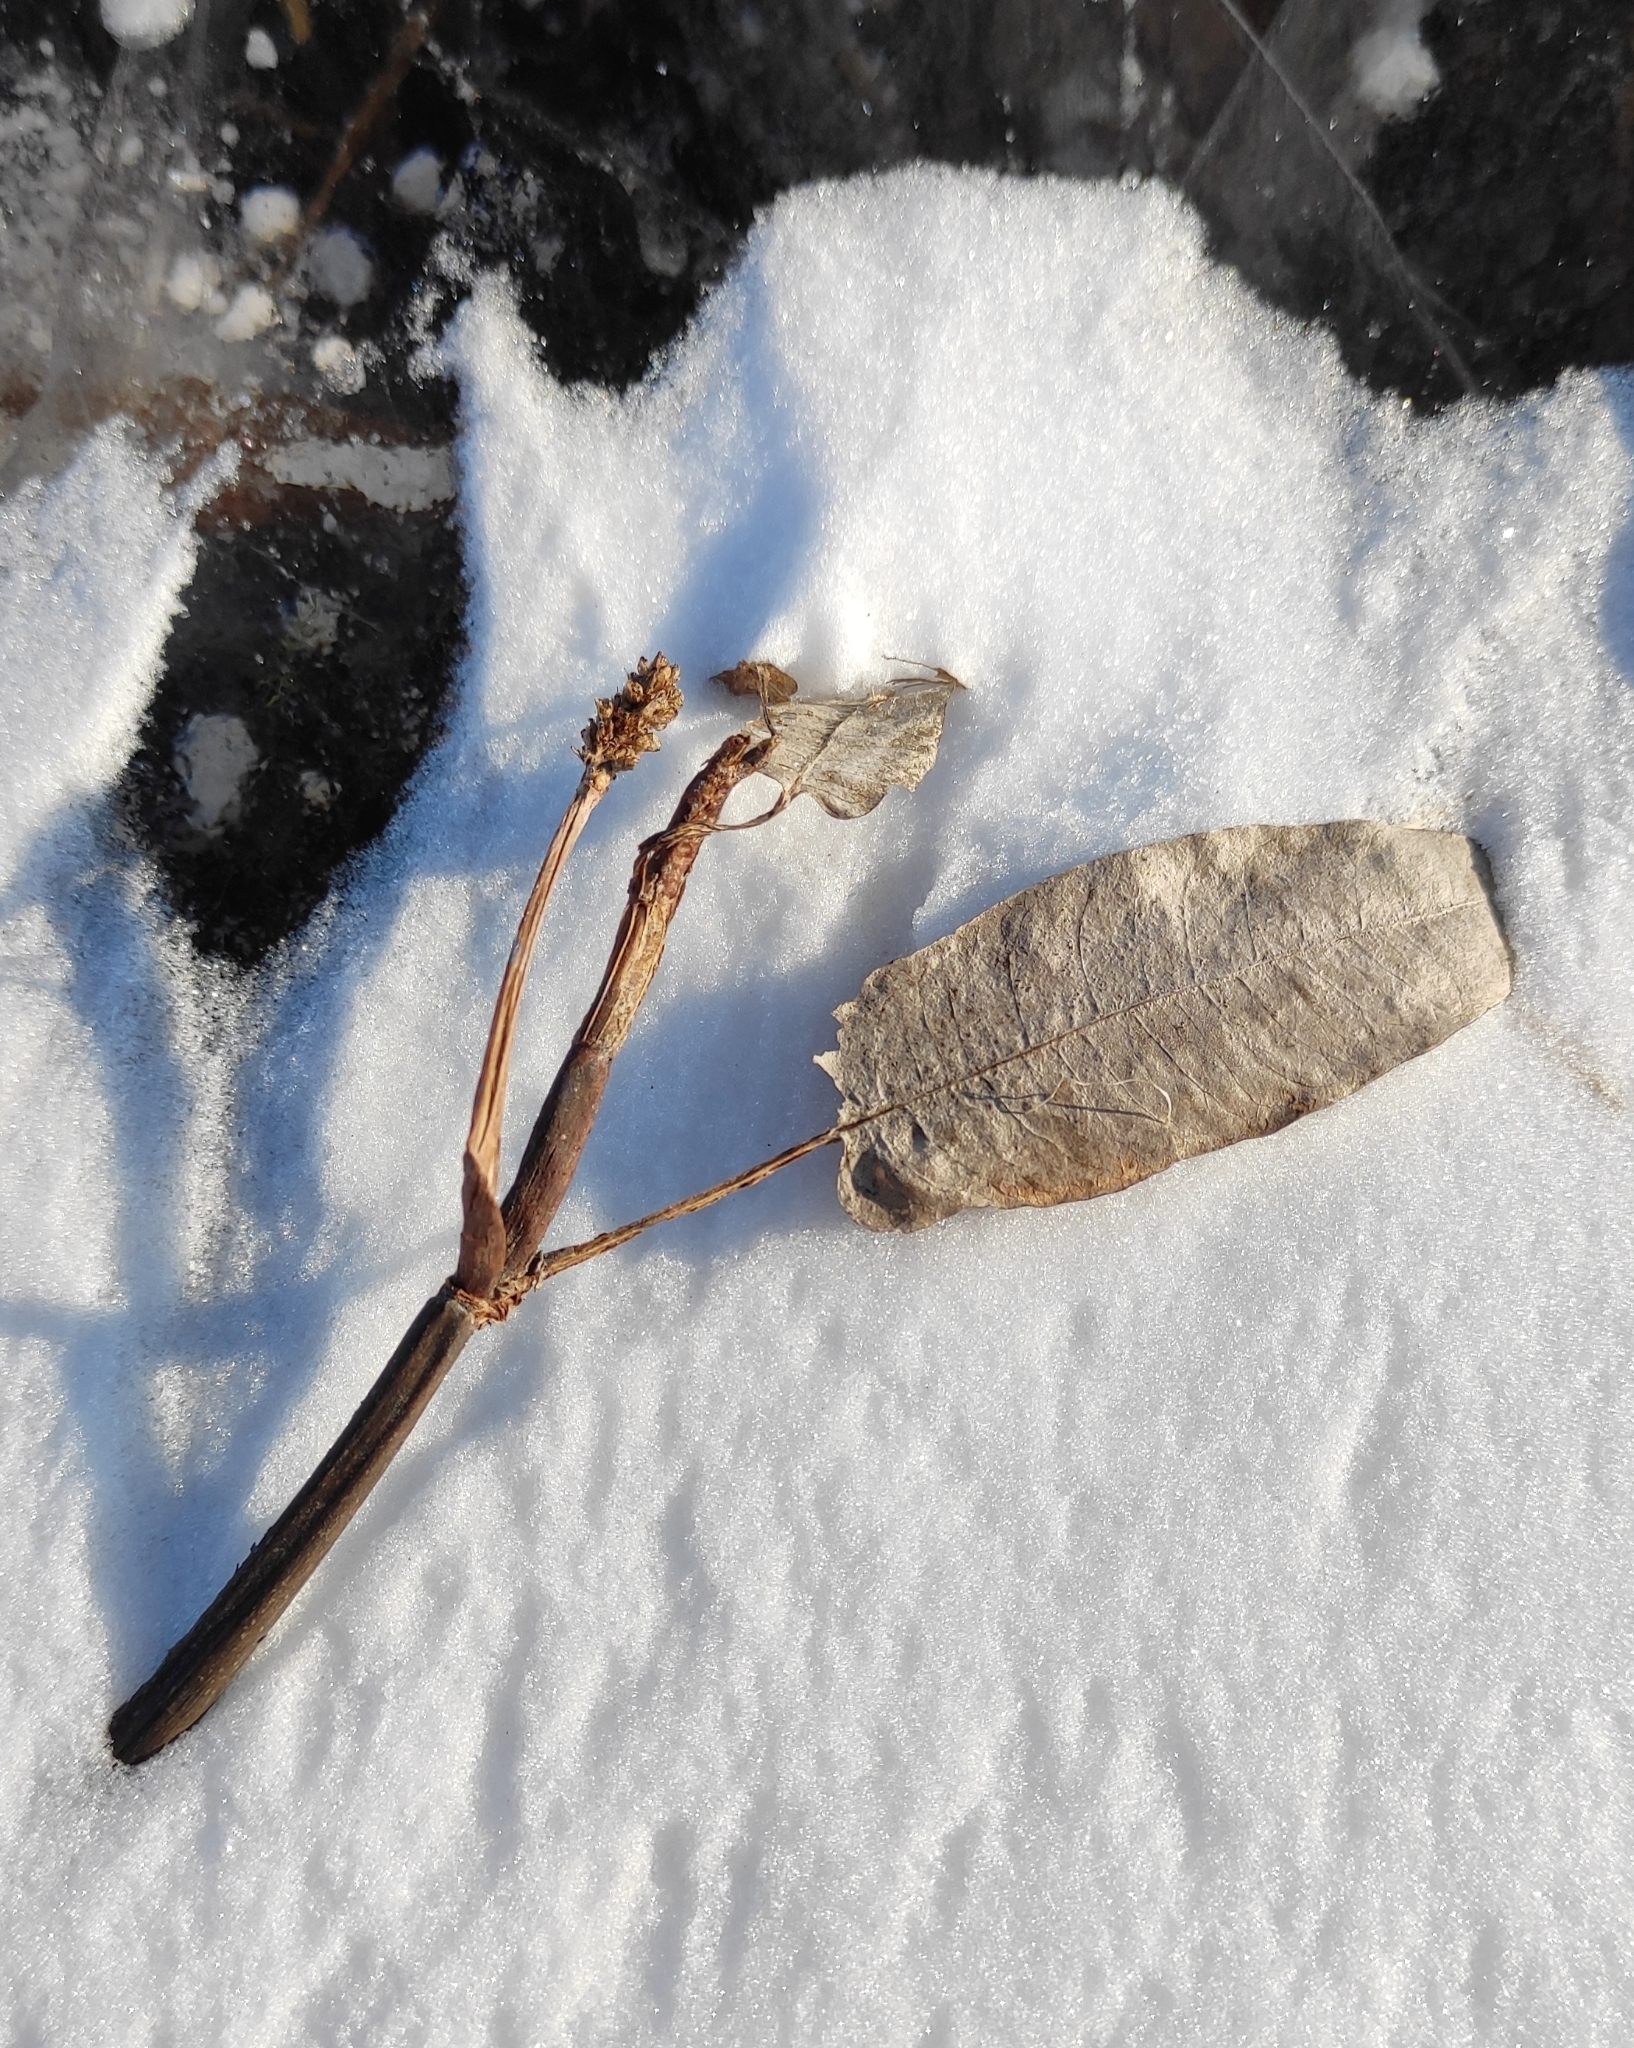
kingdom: Plantae
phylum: Tracheophyta
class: Magnoliopsida
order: Caryophyllales
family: Polygonaceae
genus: Persicaria
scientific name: Persicaria amphibia
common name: Amphibious bistort
